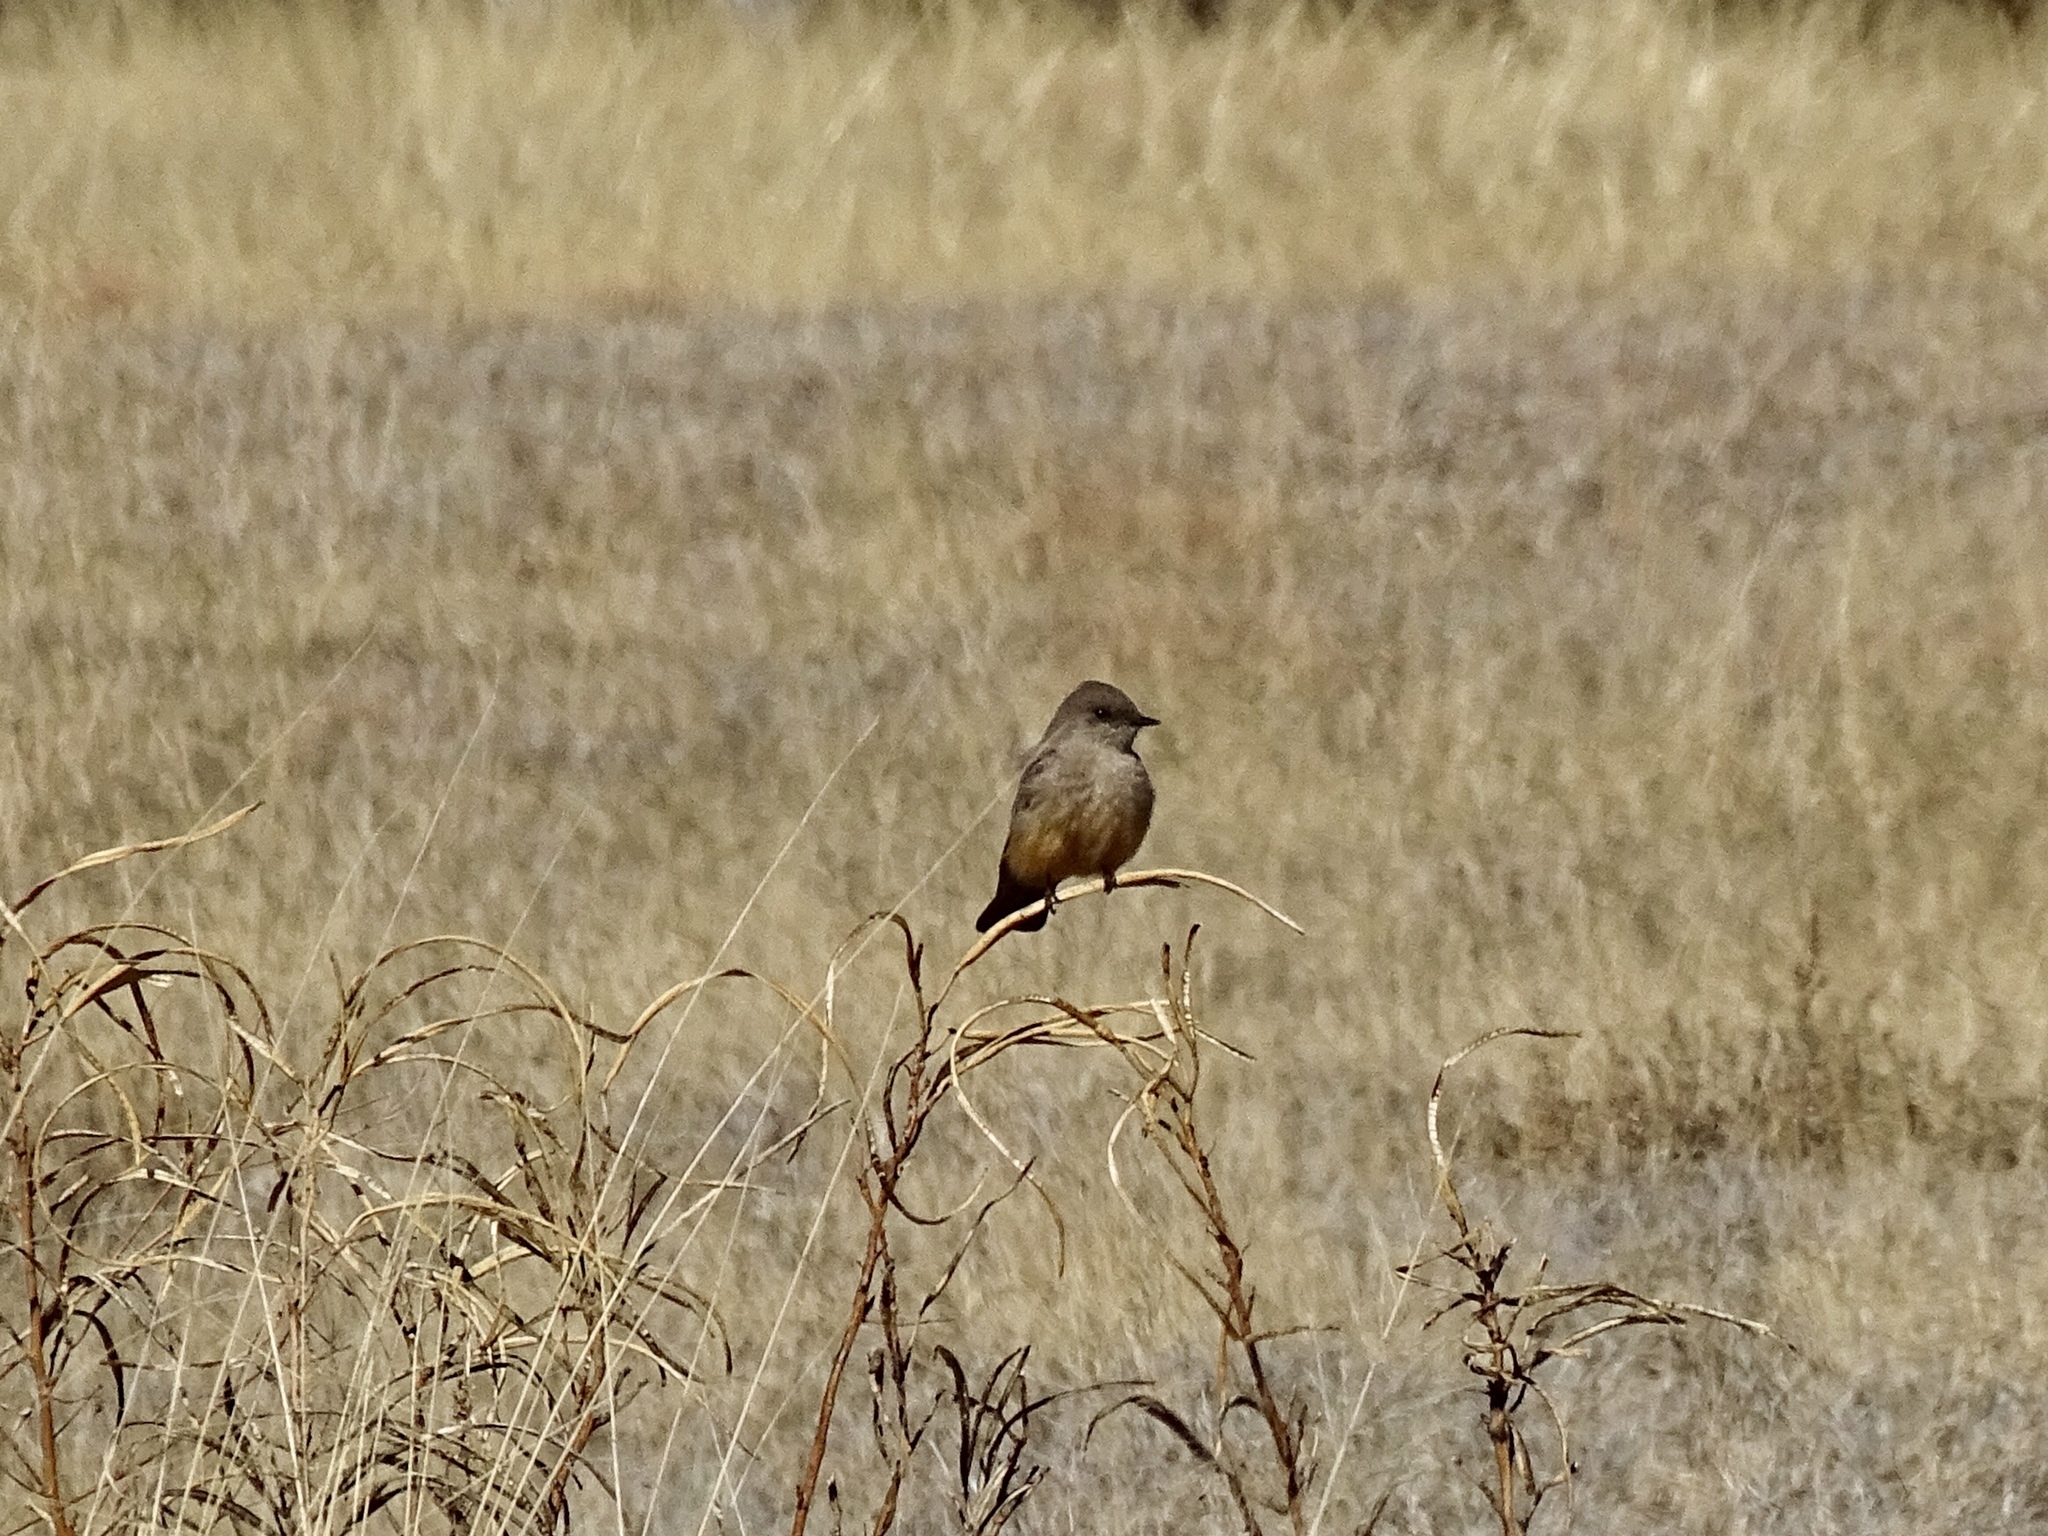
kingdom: Animalia
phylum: Chordata
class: Aves
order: Passeriformes
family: Tyrannidae
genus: Sayornis
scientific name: Sayornis saya
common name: Say's phoebe
